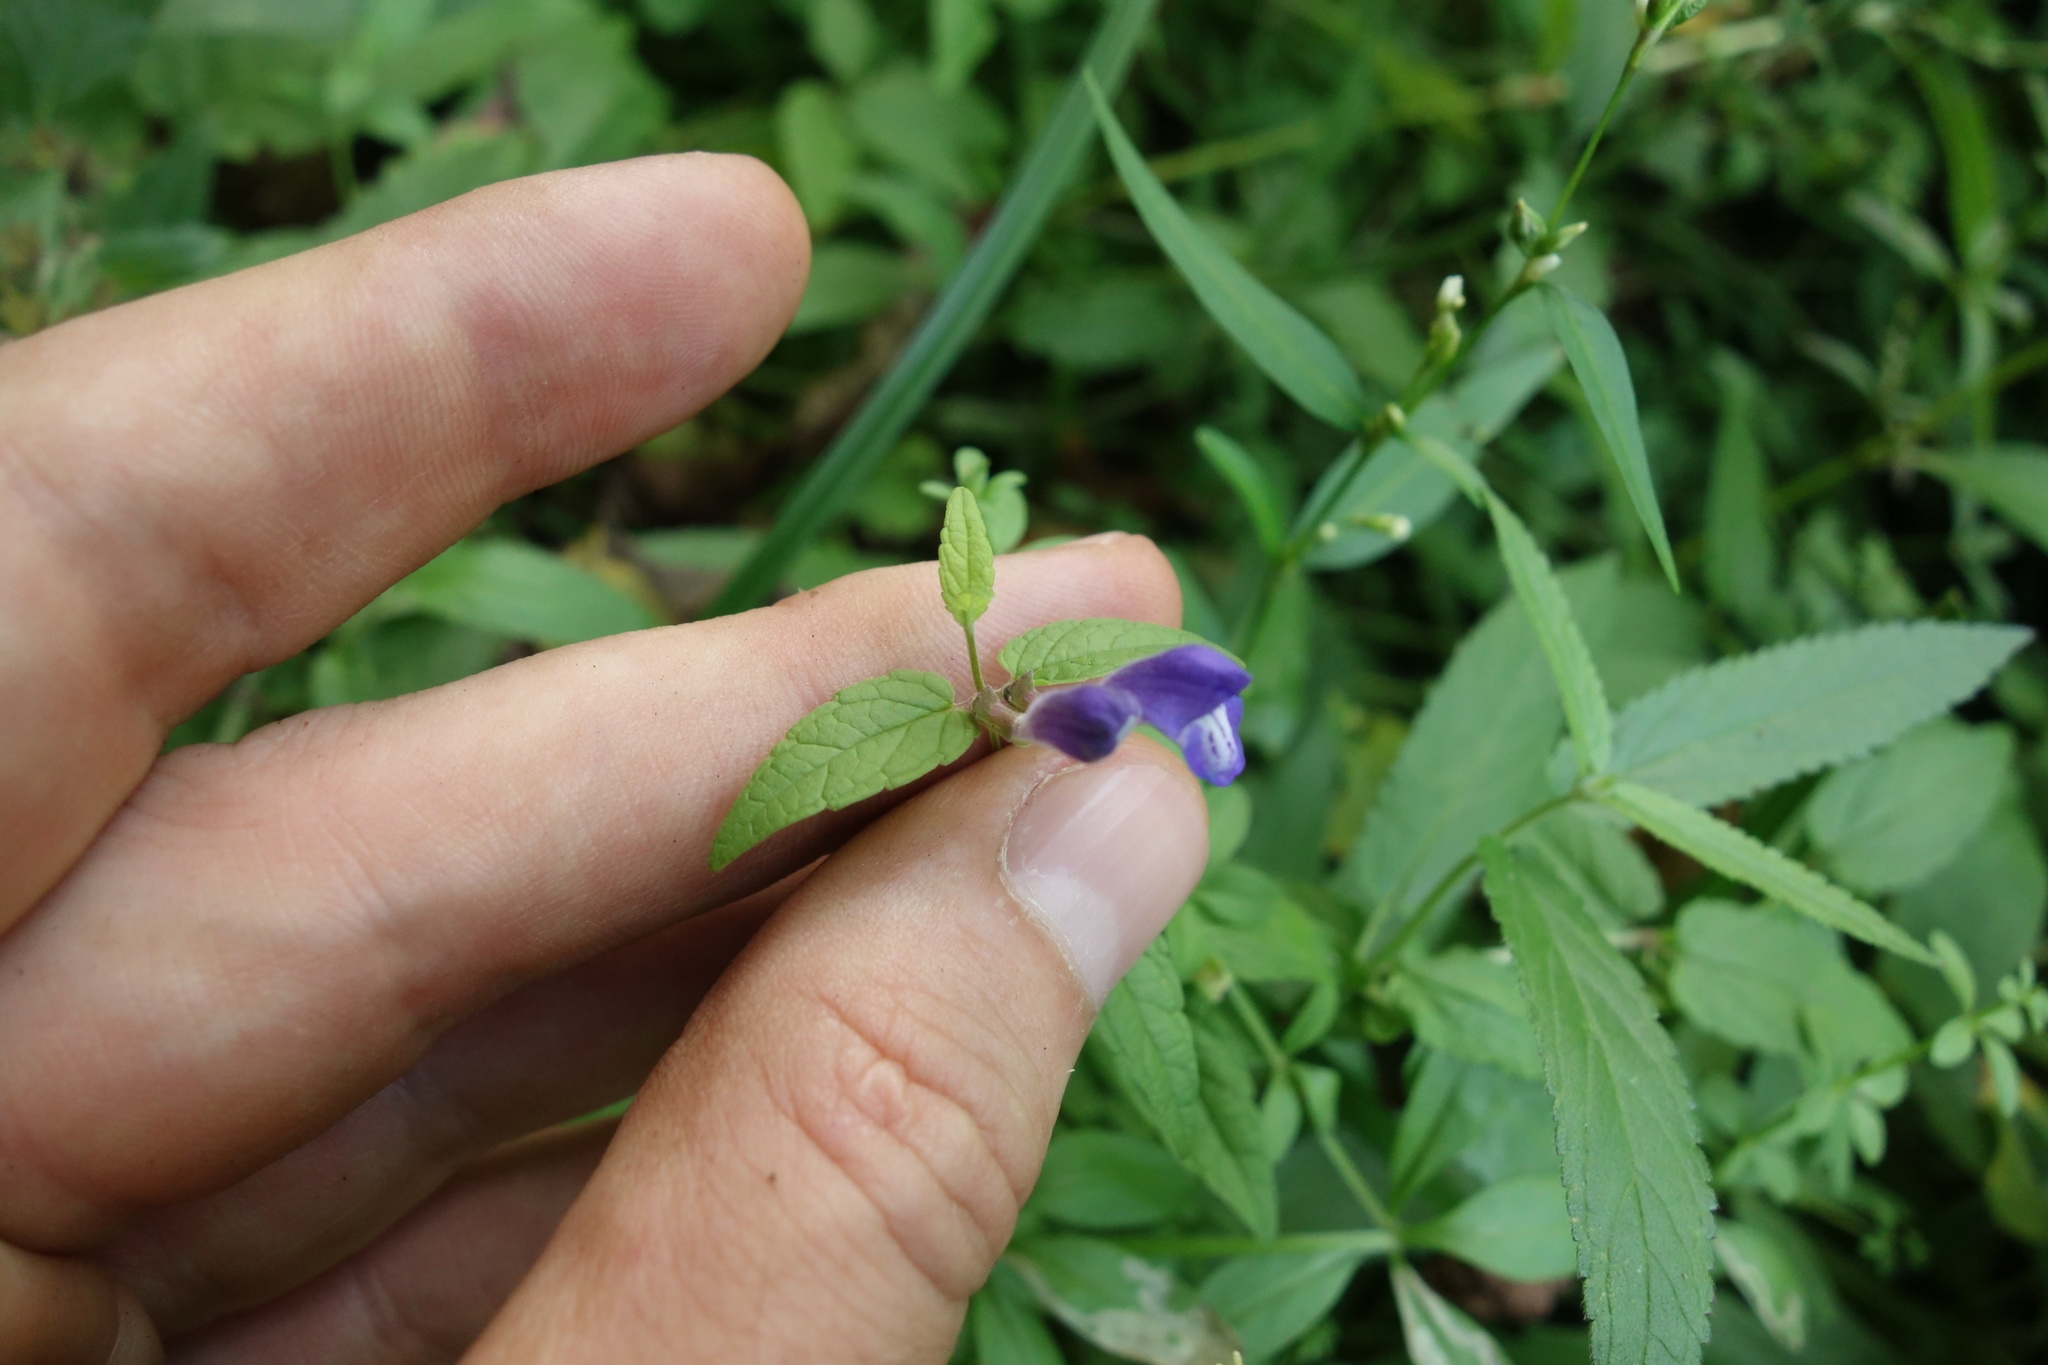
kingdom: Plantae
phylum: Tracheophyta
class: Magnoliopsida
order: Lamiales
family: Lamiaceae
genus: Scutellaria
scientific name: Scutellaria galericulata
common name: Skullcap
